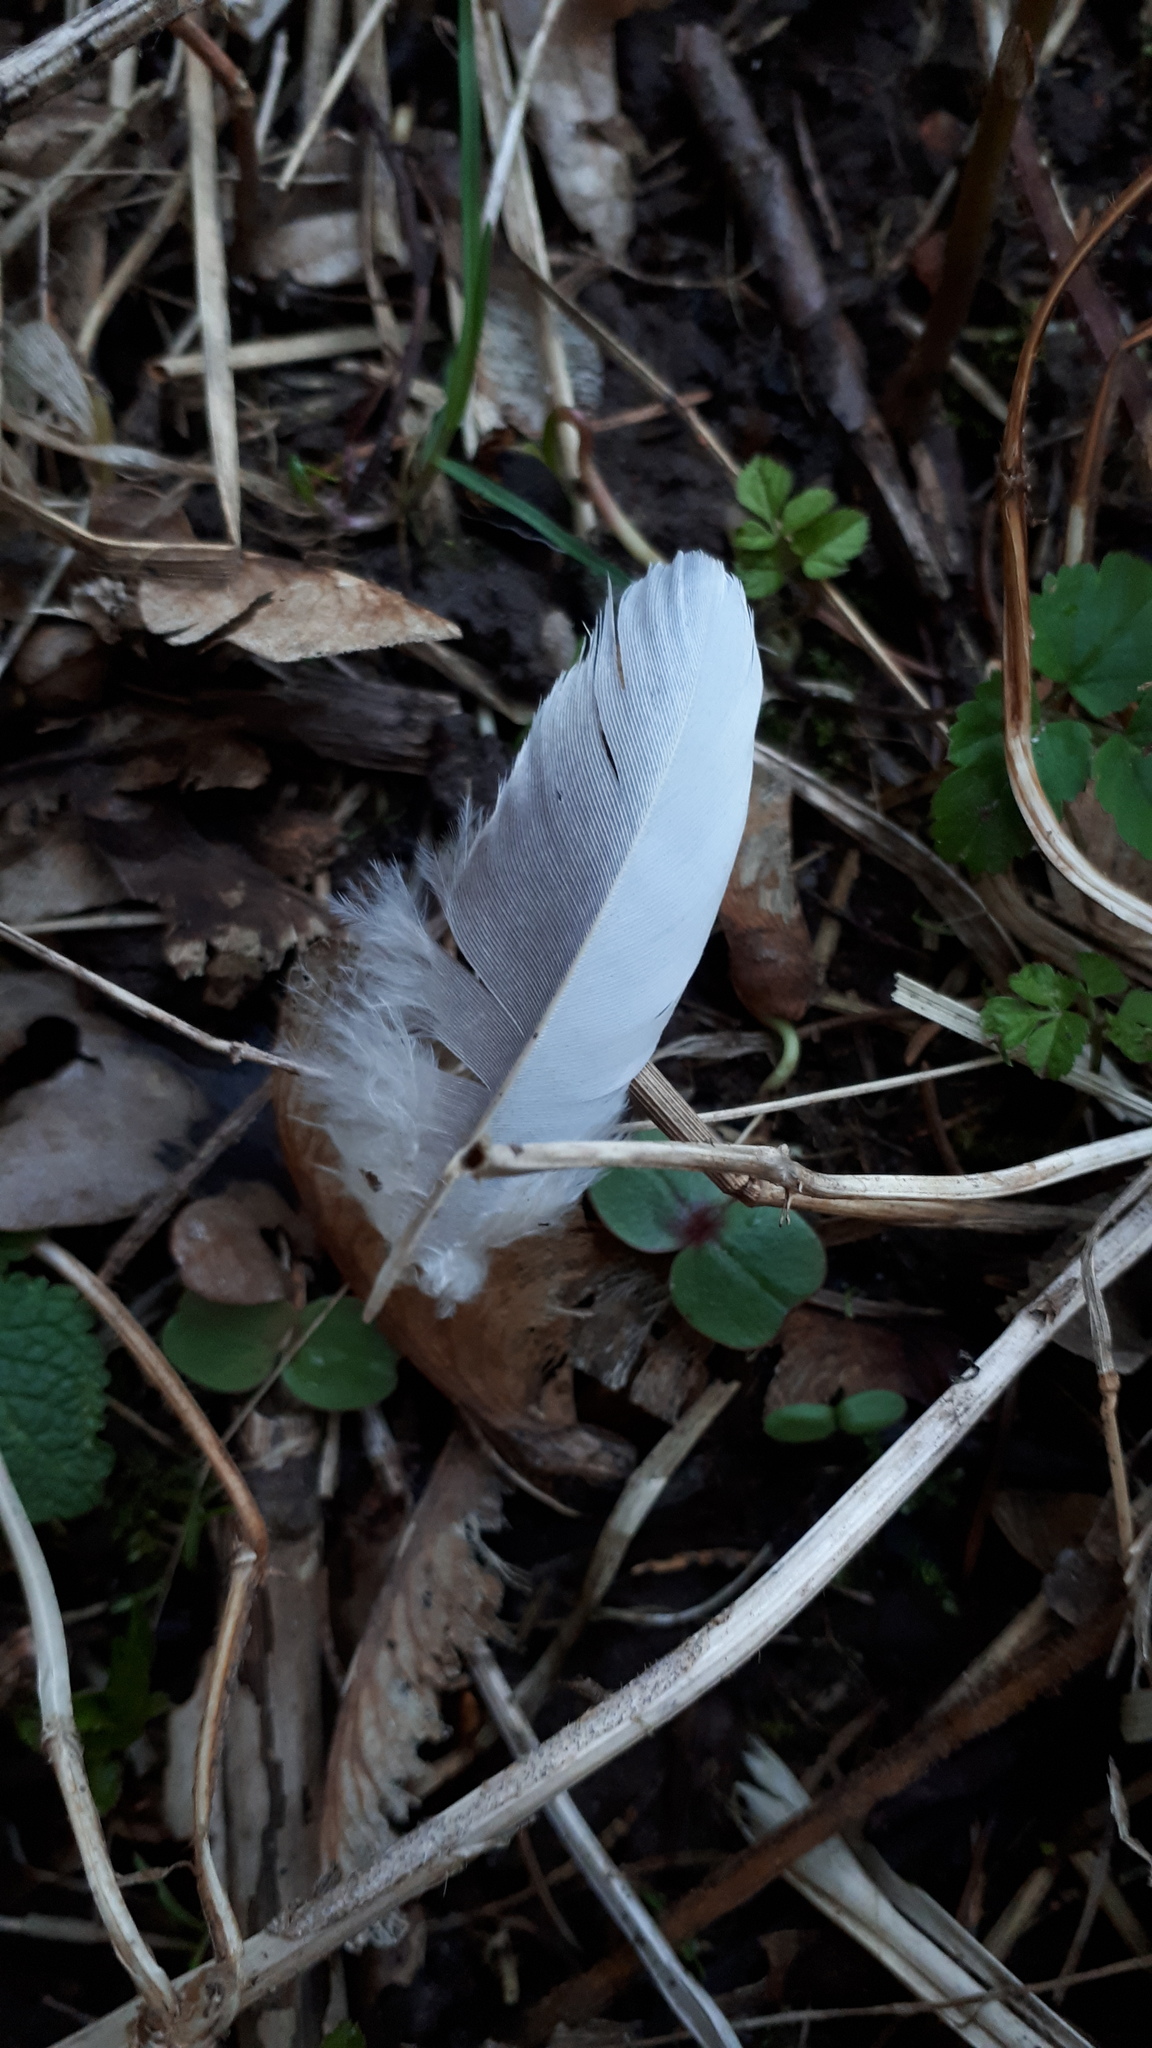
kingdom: Animalia
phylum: Chordata
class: Aves
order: Columbiformes
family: Columbidae
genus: Columba
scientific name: Columba palumbus
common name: Common wood pigeon
